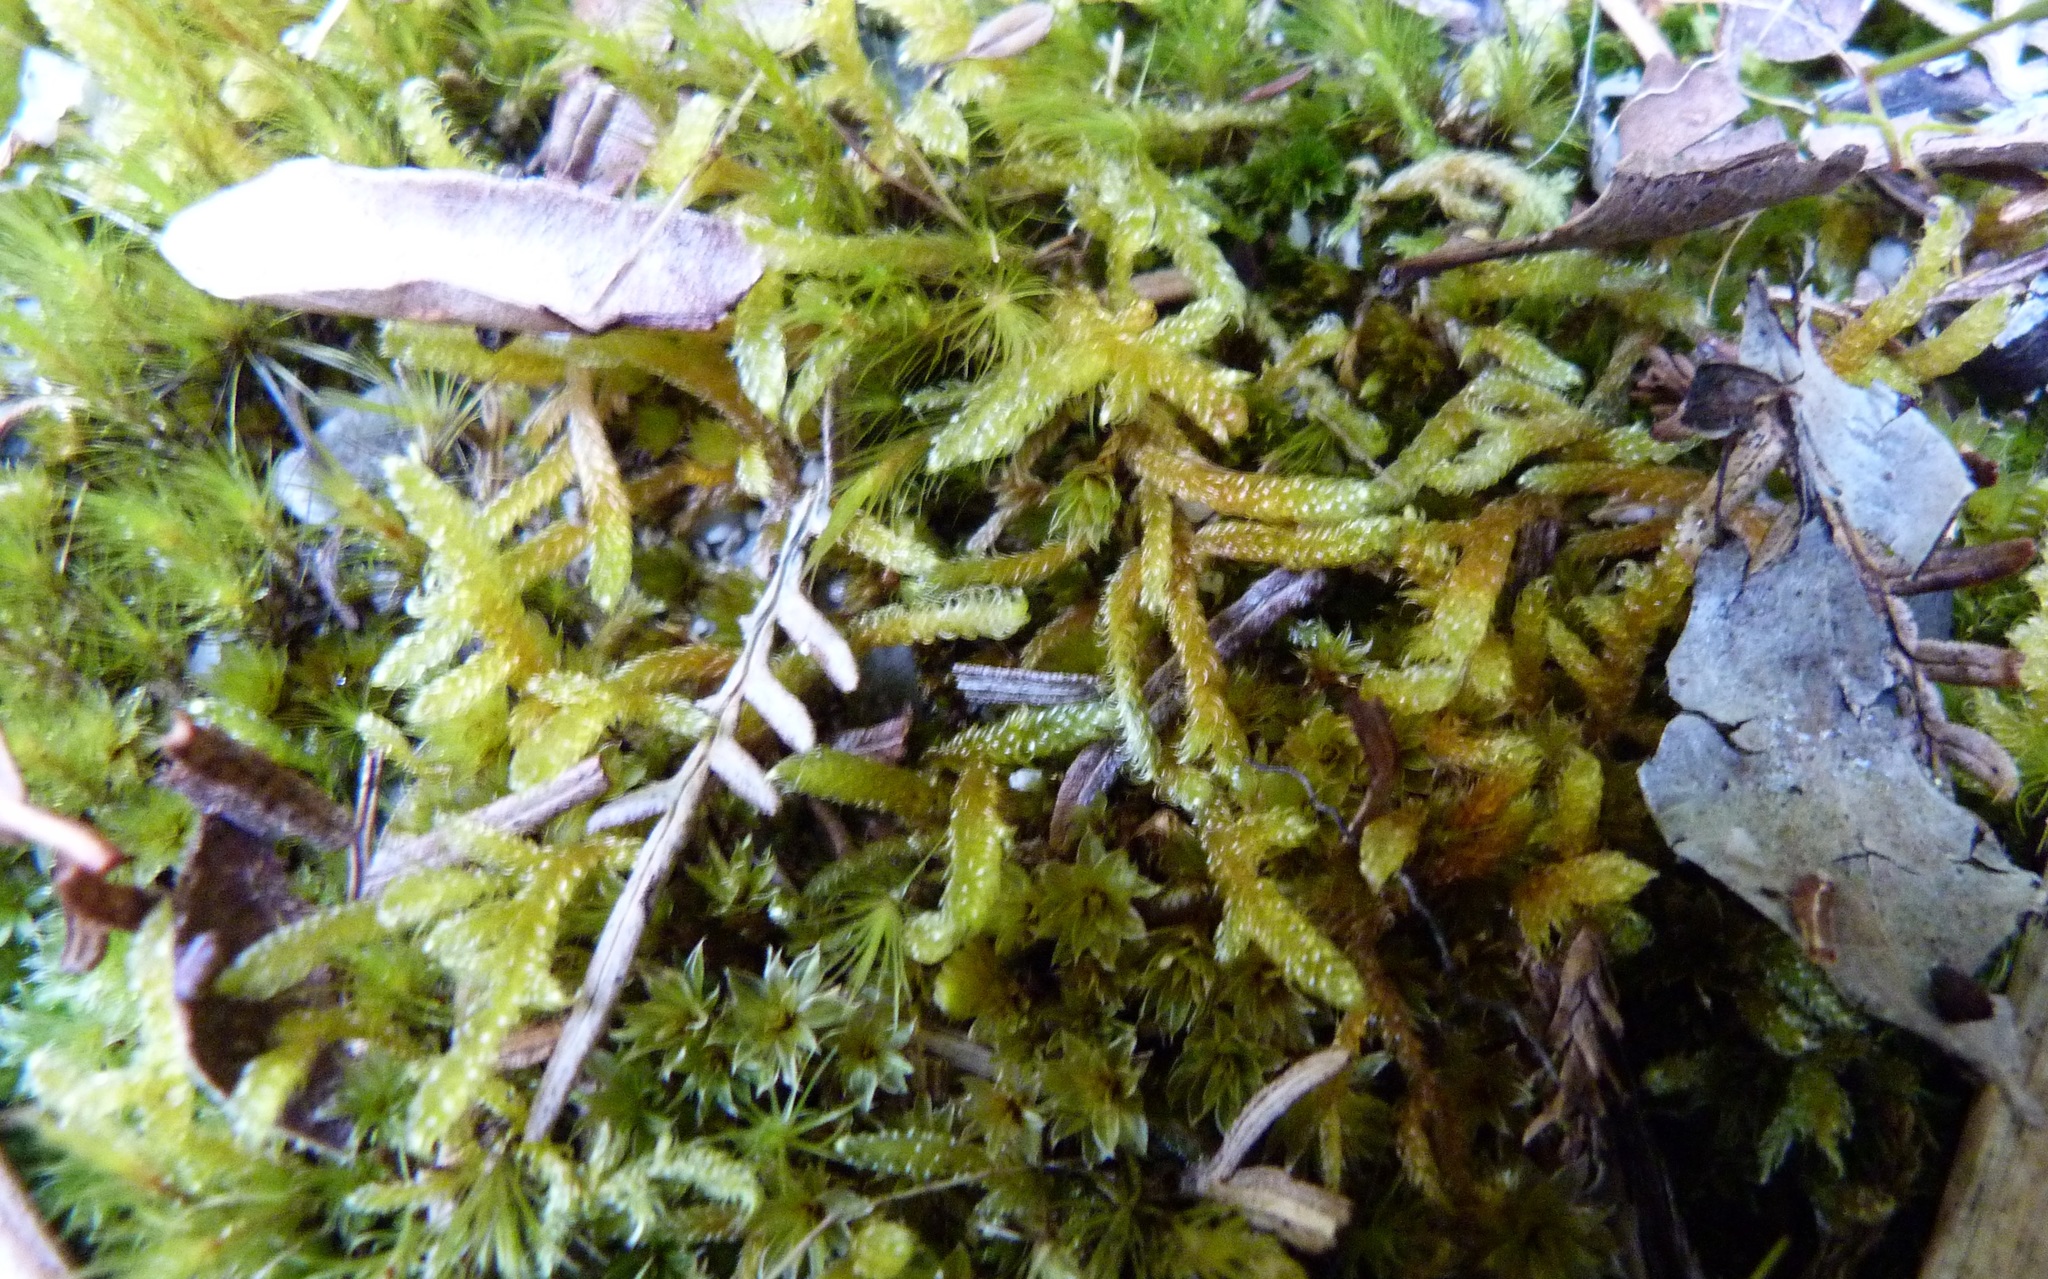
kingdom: Plantae
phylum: Bryophyta
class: Bryopsida
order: Hypnales
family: Hypnaceae
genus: Hypnum
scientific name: Hypnum cupressiforme
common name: Cypress-leaved plait-moss
